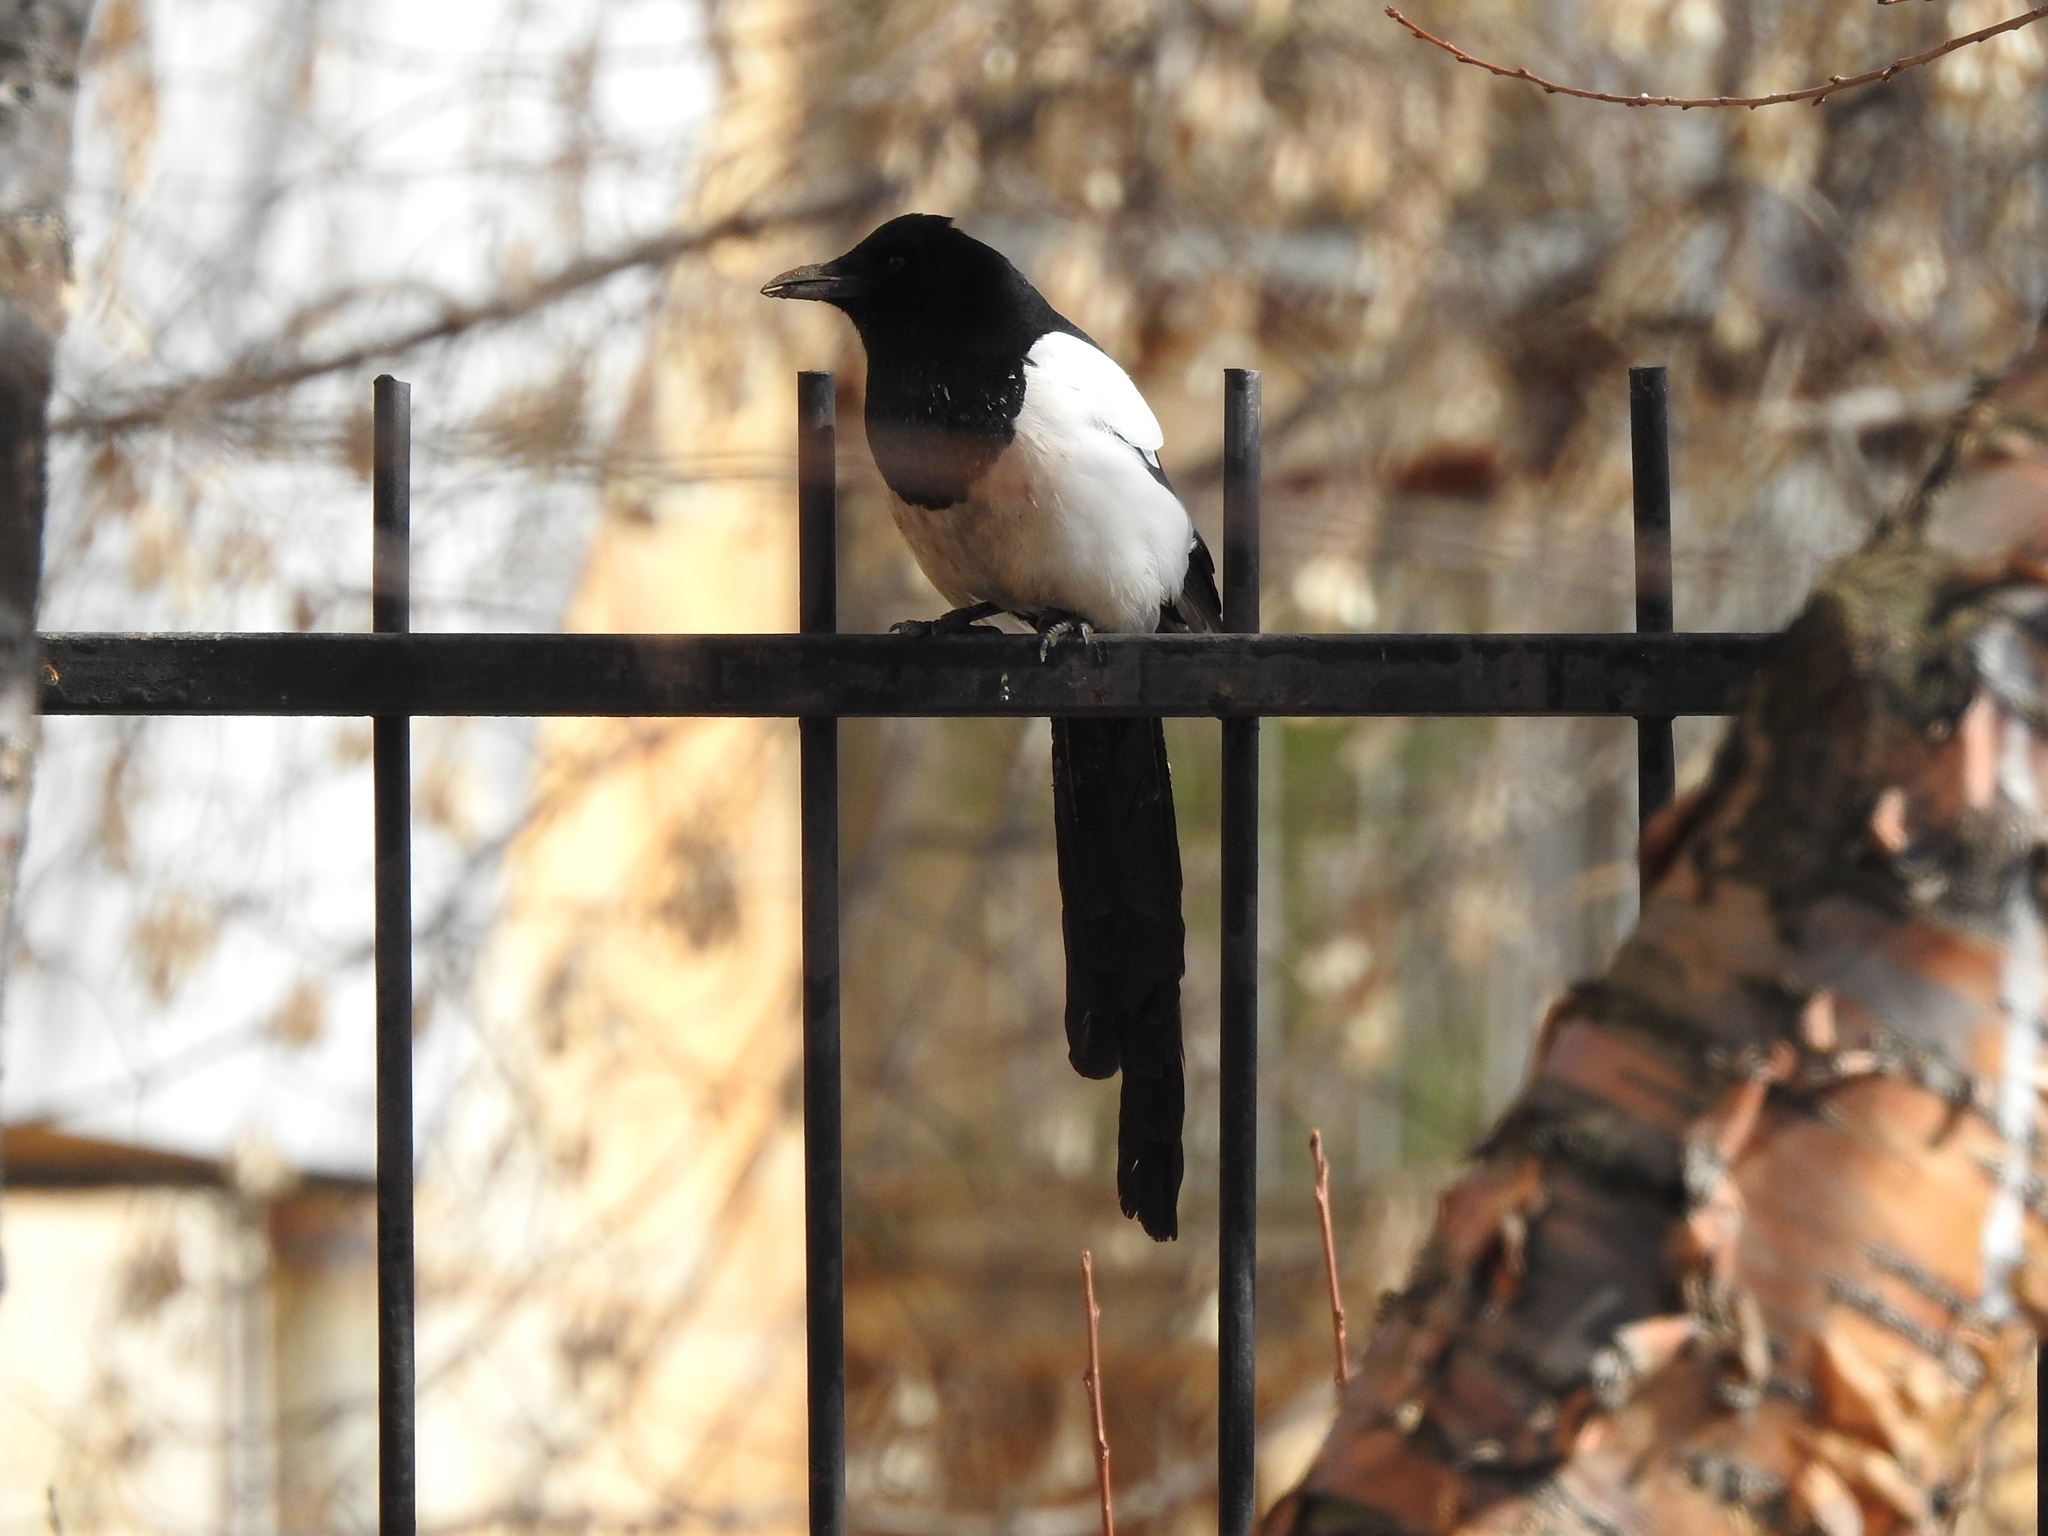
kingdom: Animalia
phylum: Chordata
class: Aves
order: Passeriformes
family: Corvidae
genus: Pica
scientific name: Pica pica
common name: Eurasian magpie
